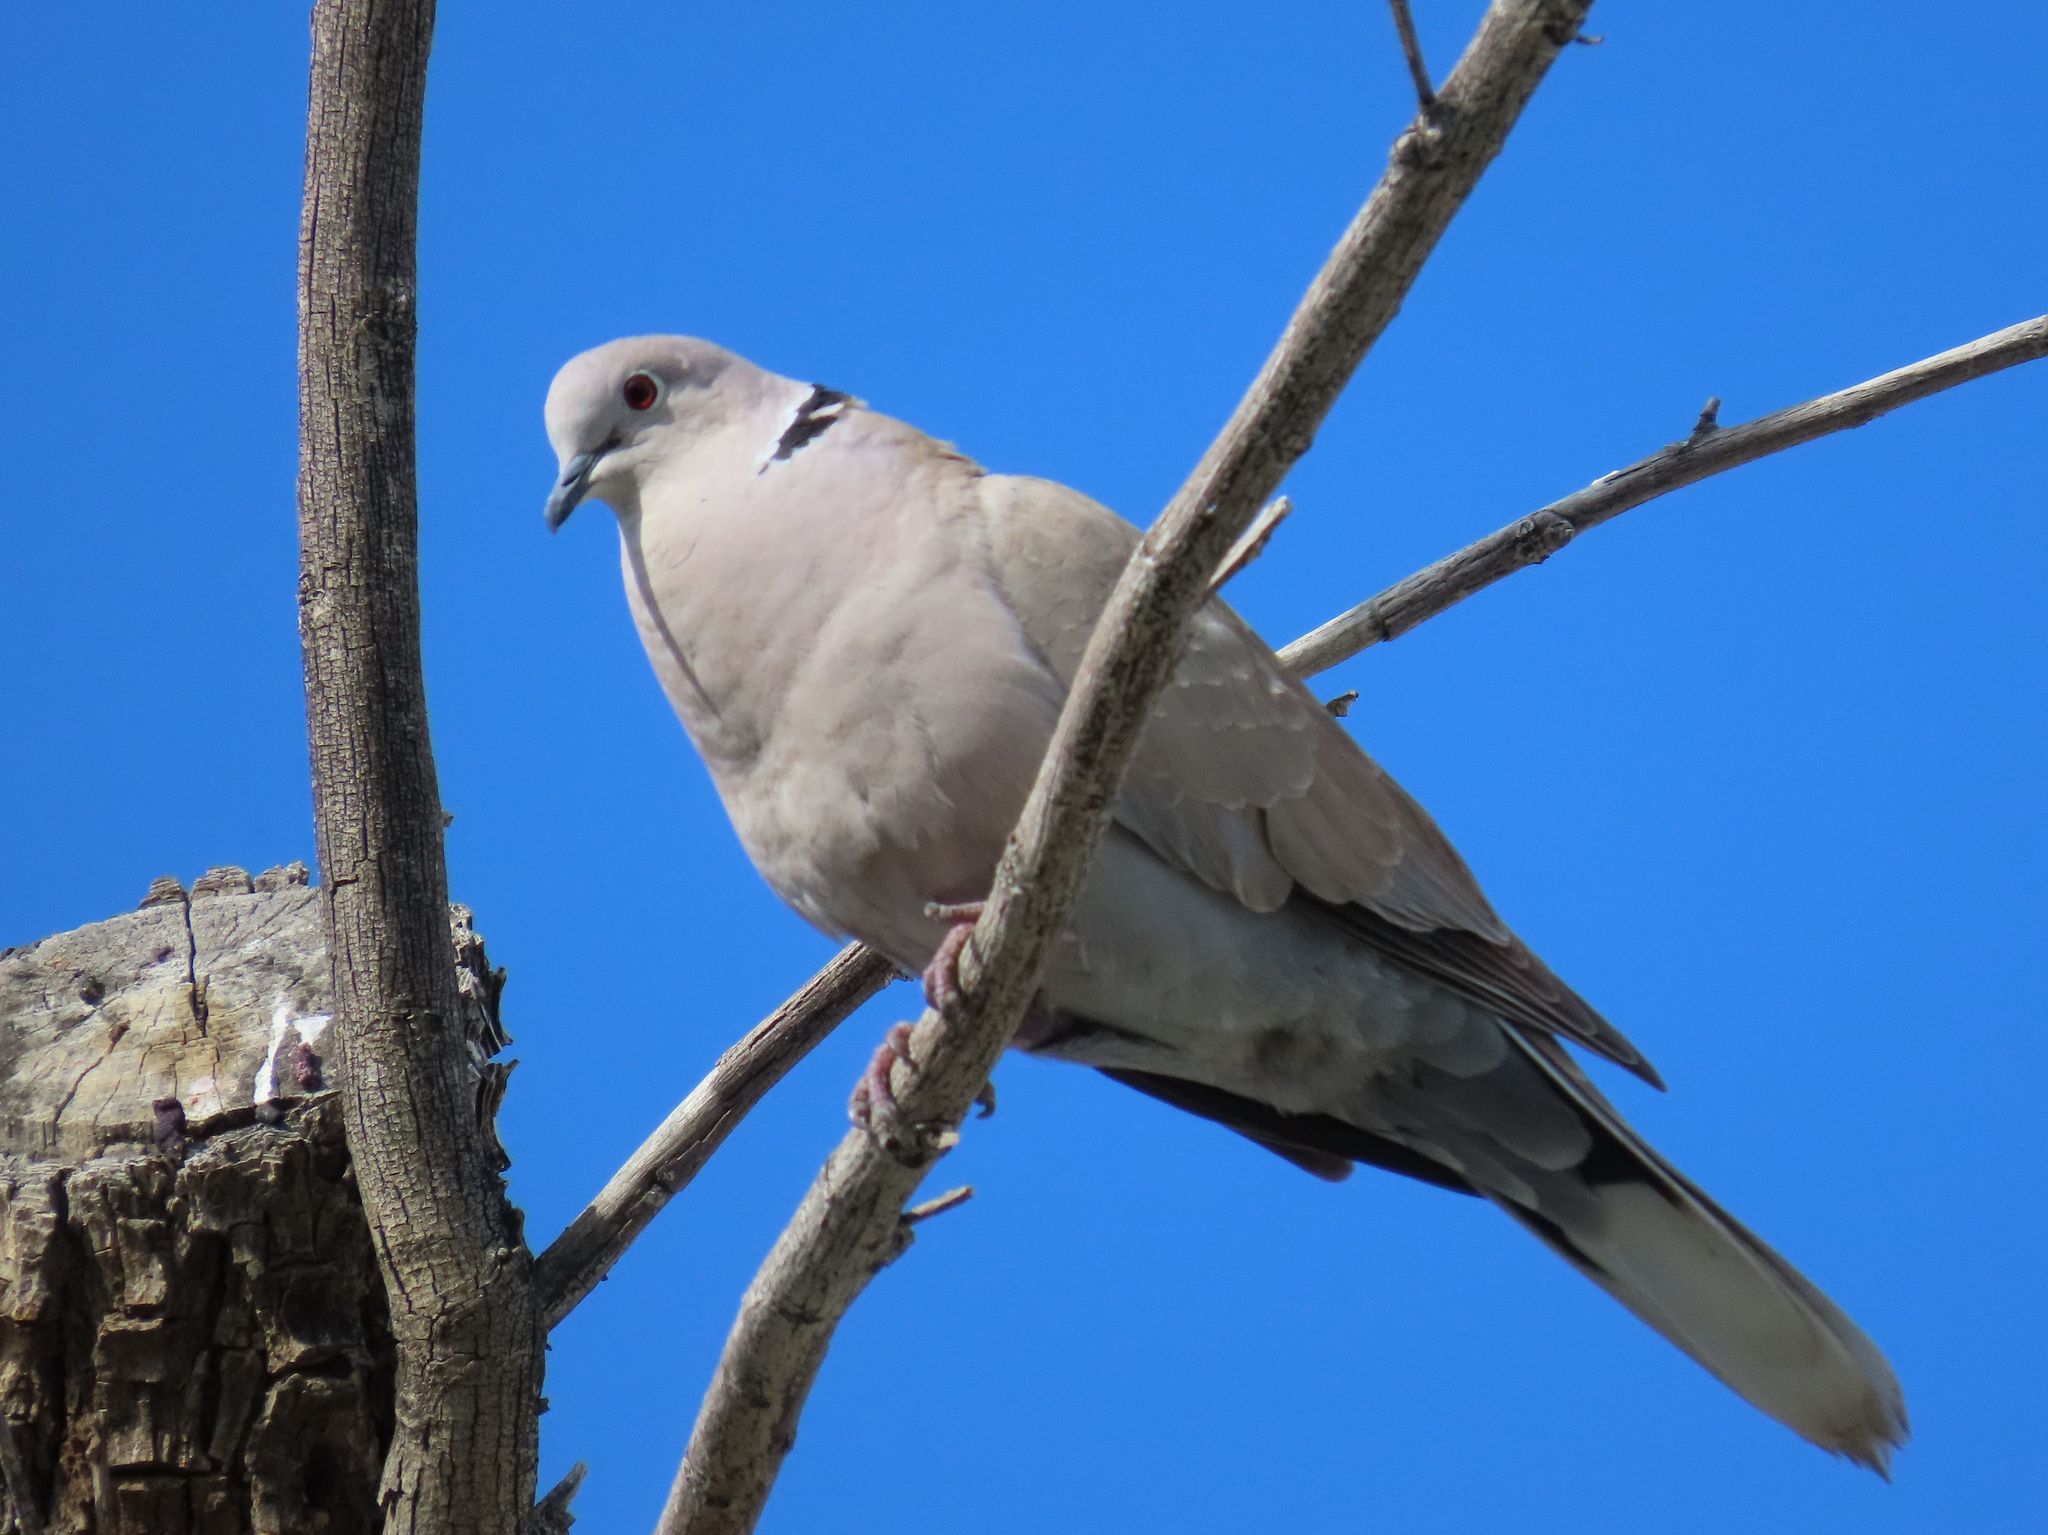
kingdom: Animalia
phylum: Chordata
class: Aves
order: Columbiformes
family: Columbidae
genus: Streptopelia
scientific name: Streptopelia decaocto
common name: Eurasian collared dove
